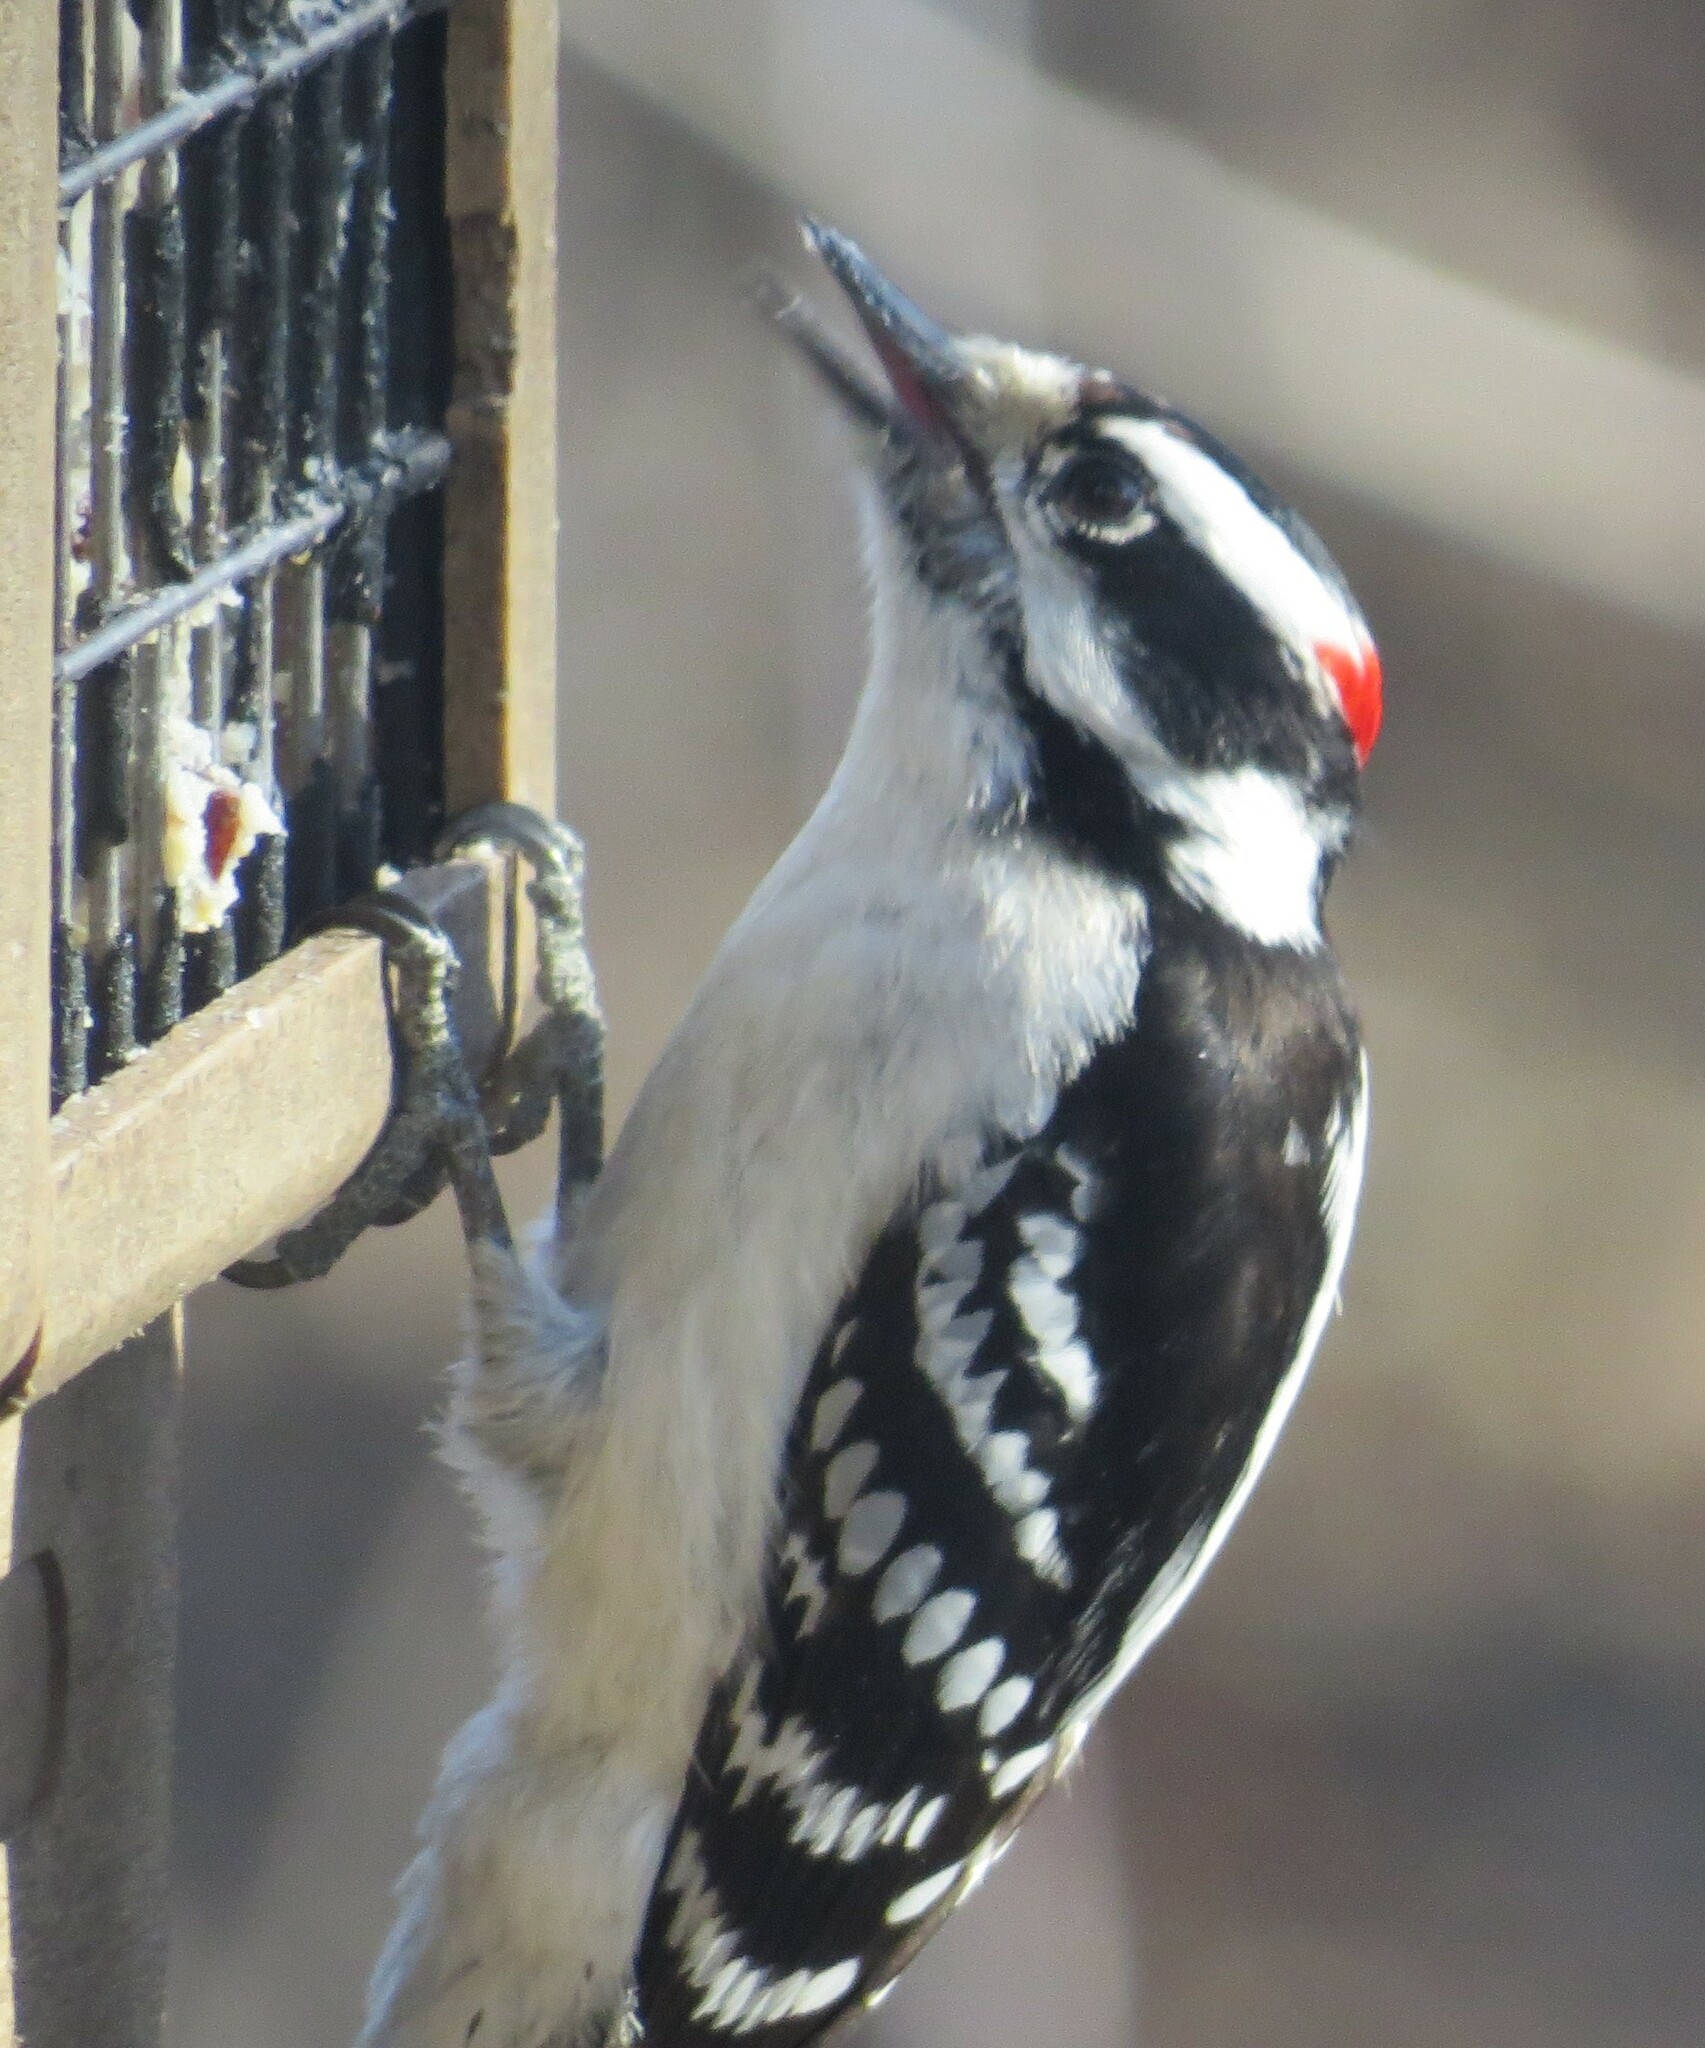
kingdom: Animalia
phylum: Chordata
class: Aves
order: Piciformes
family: Picidae
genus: Dryobates
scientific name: Dryobates pubescens
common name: Downy woodpecker
